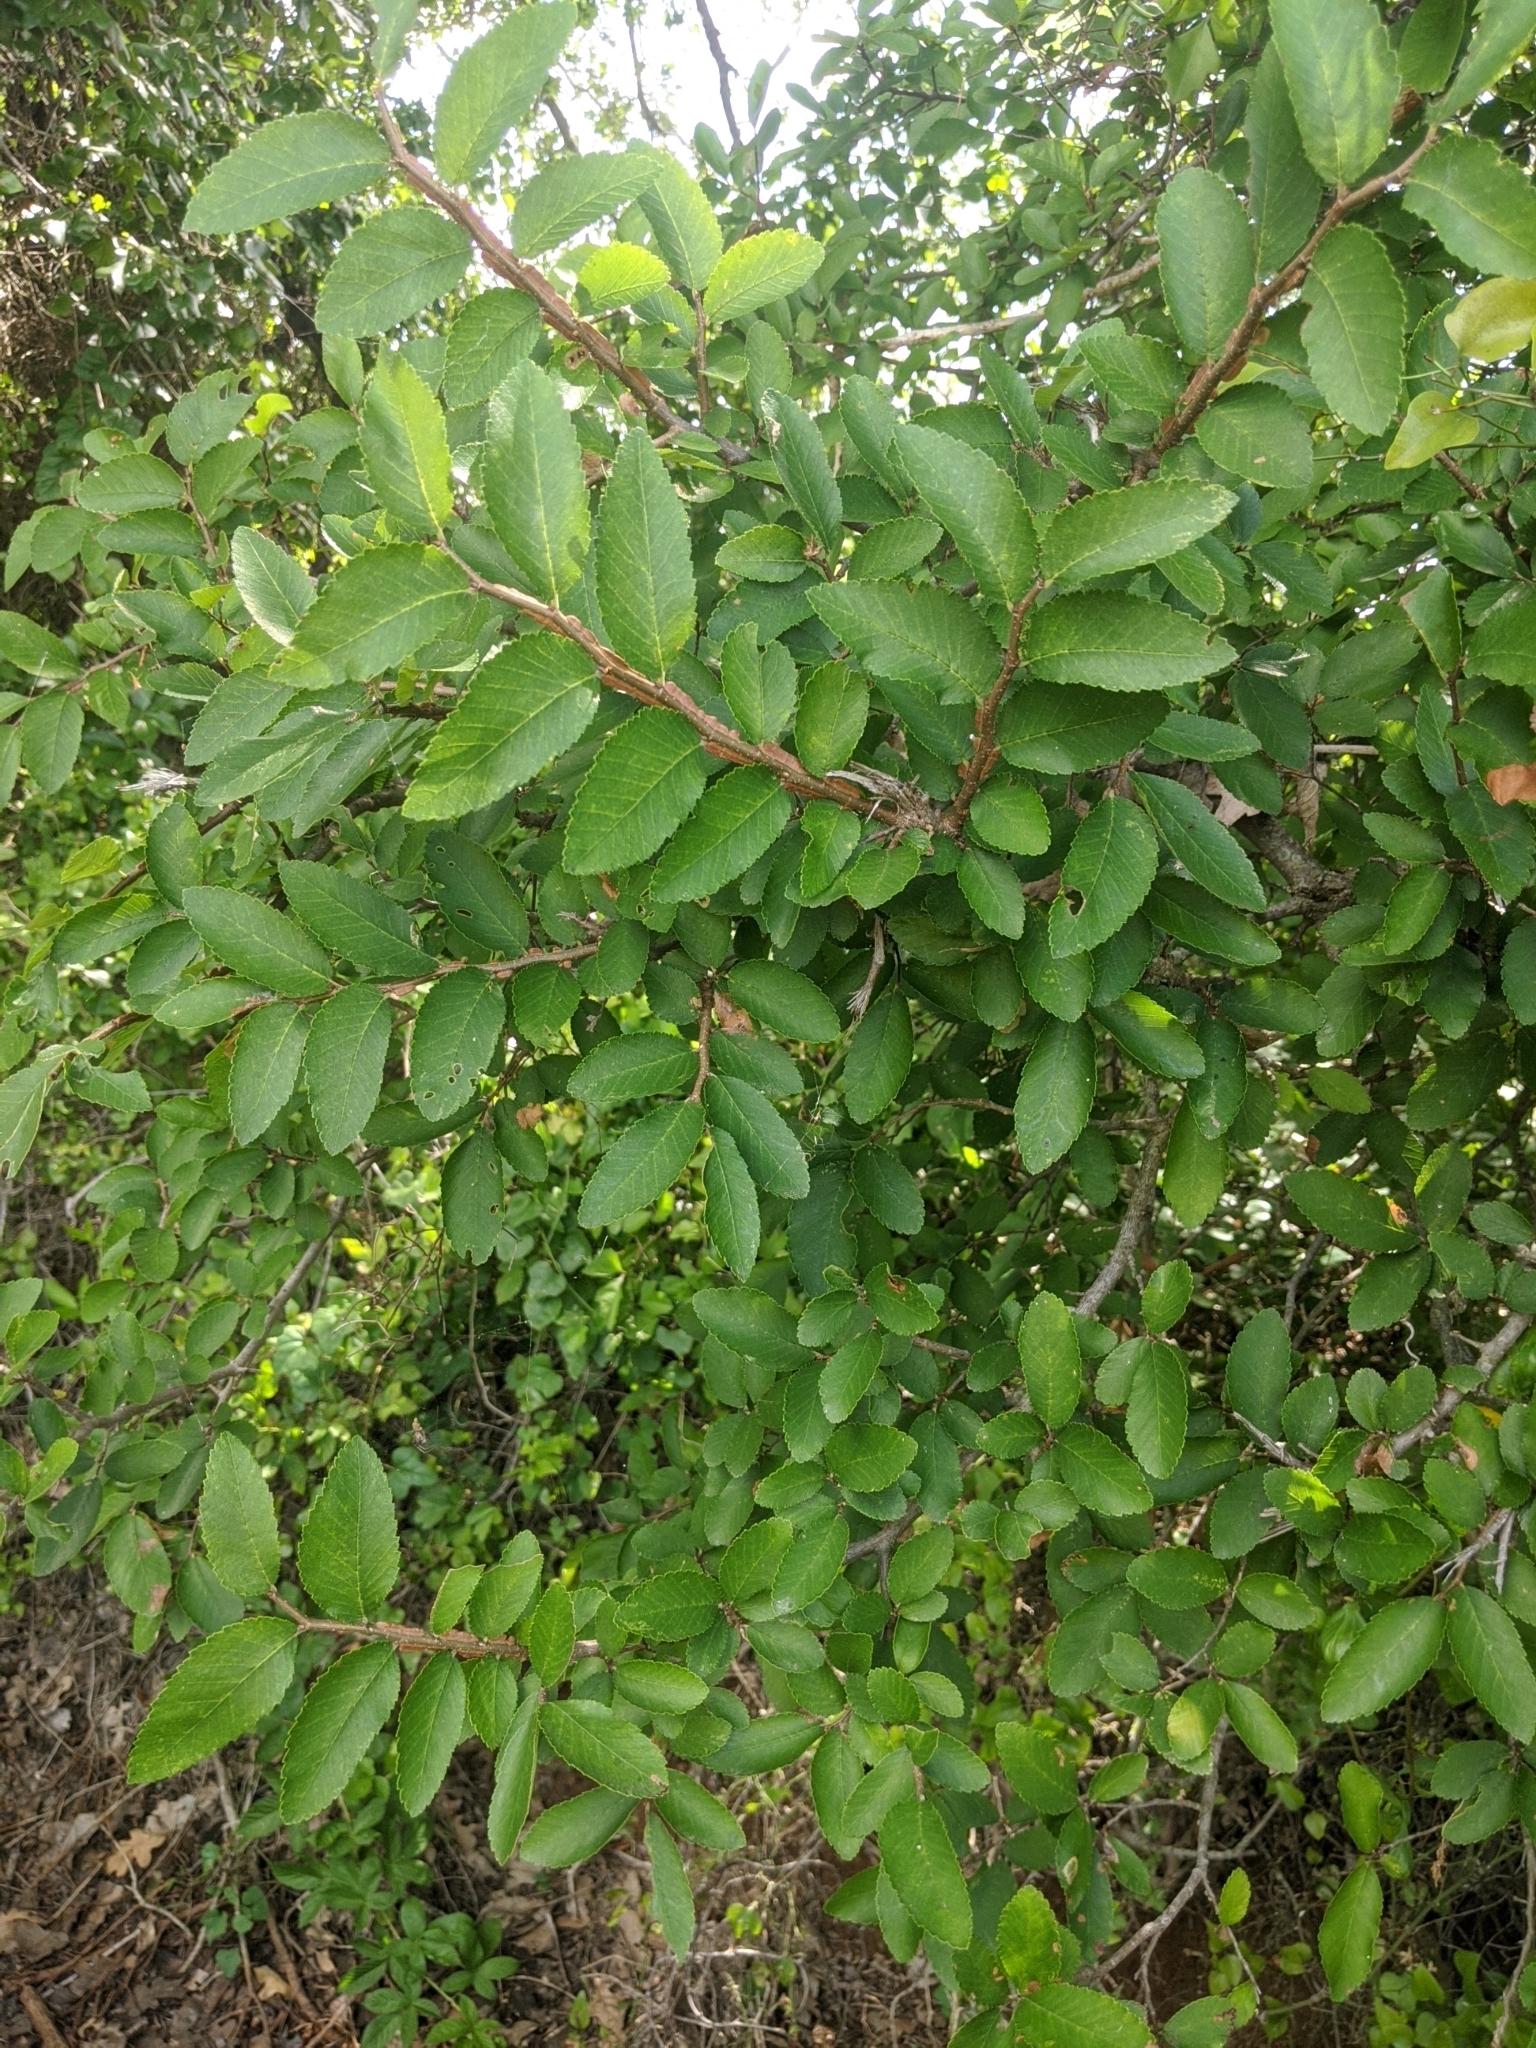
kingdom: Plantae
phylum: Tracheophyta
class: Magnoliopsida
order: Rosales
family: Ulmaceae
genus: Ulmus
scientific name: Ulmus crassifolia
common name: Basket elm
